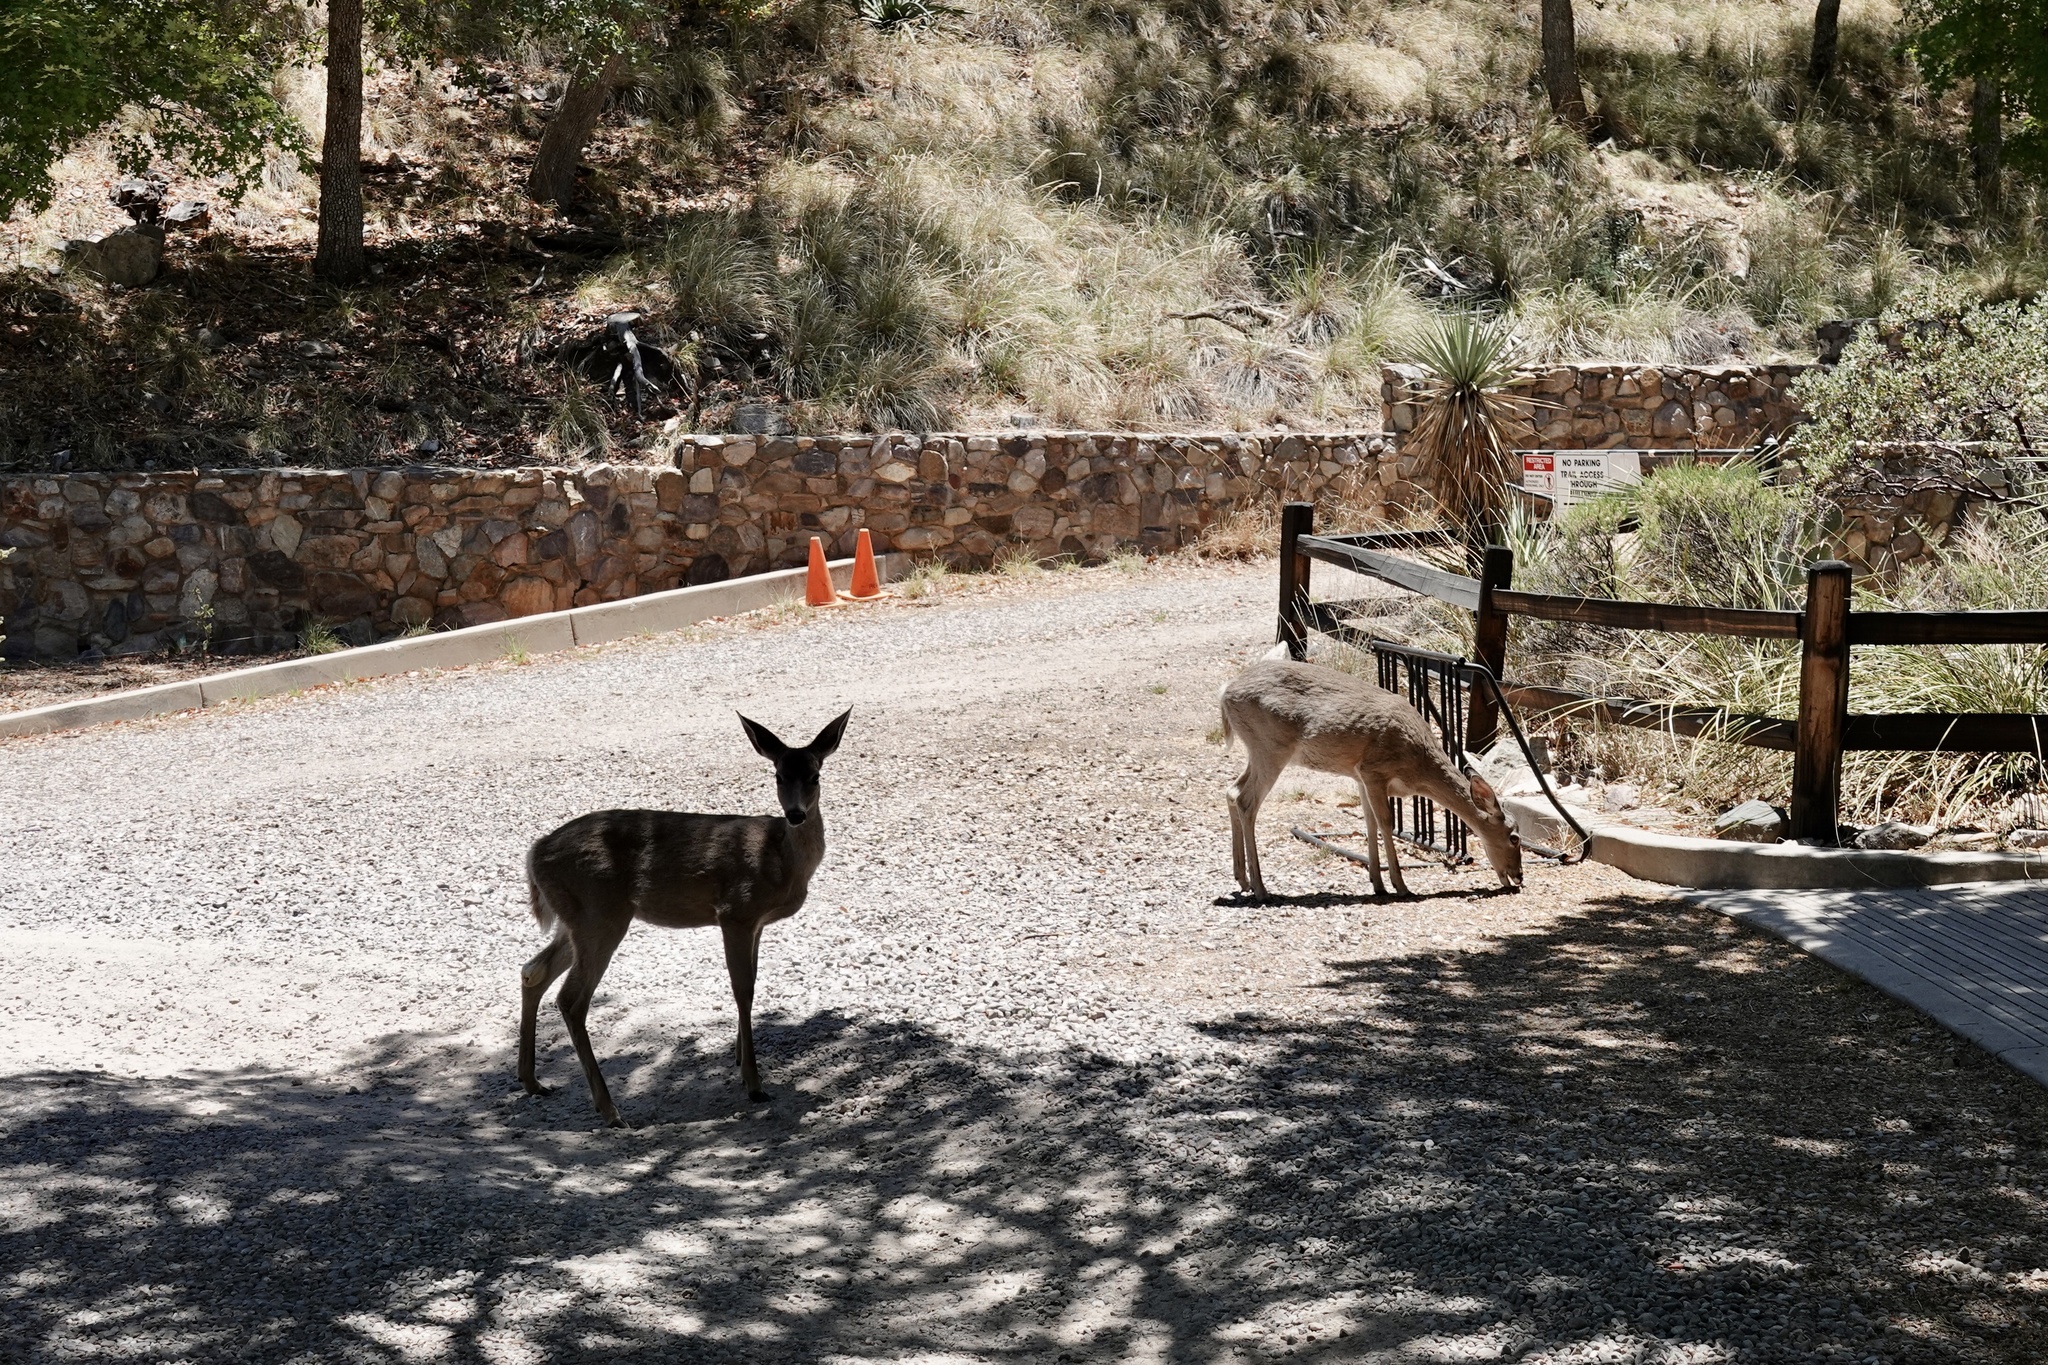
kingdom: Animalia
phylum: Chordata
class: Mammalia
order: Artiodactyla
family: Cervidae
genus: Odocoileus
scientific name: Odocoileus virginianus
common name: White-tailed deer
